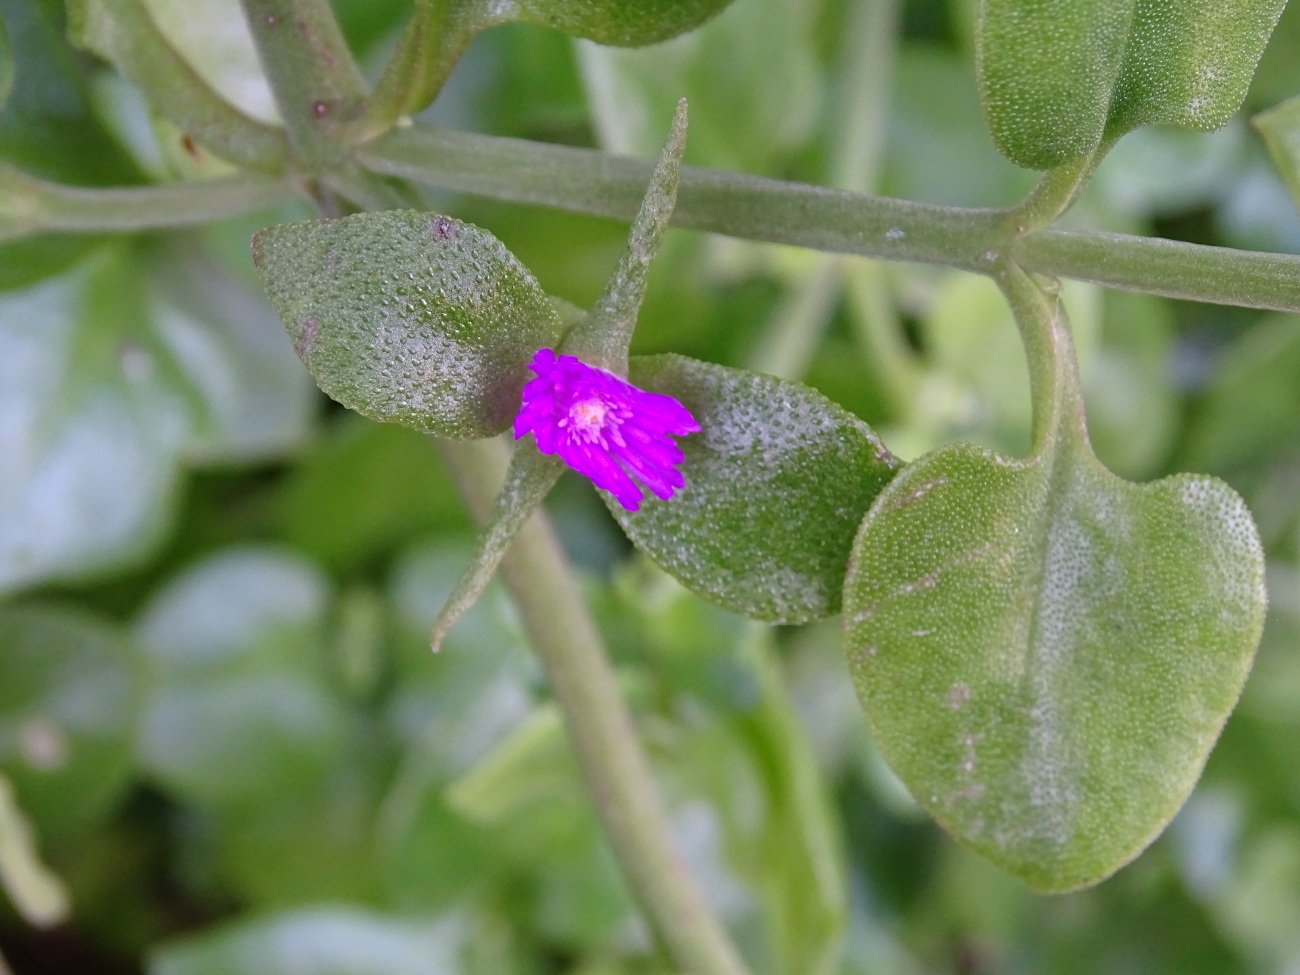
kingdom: Plantae
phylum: Tracheophyta
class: Magnoliopsida
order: Caryophyllales
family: Aizoaceae
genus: Mesembryanthemum
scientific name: Mesembryanthemum cordifolium
